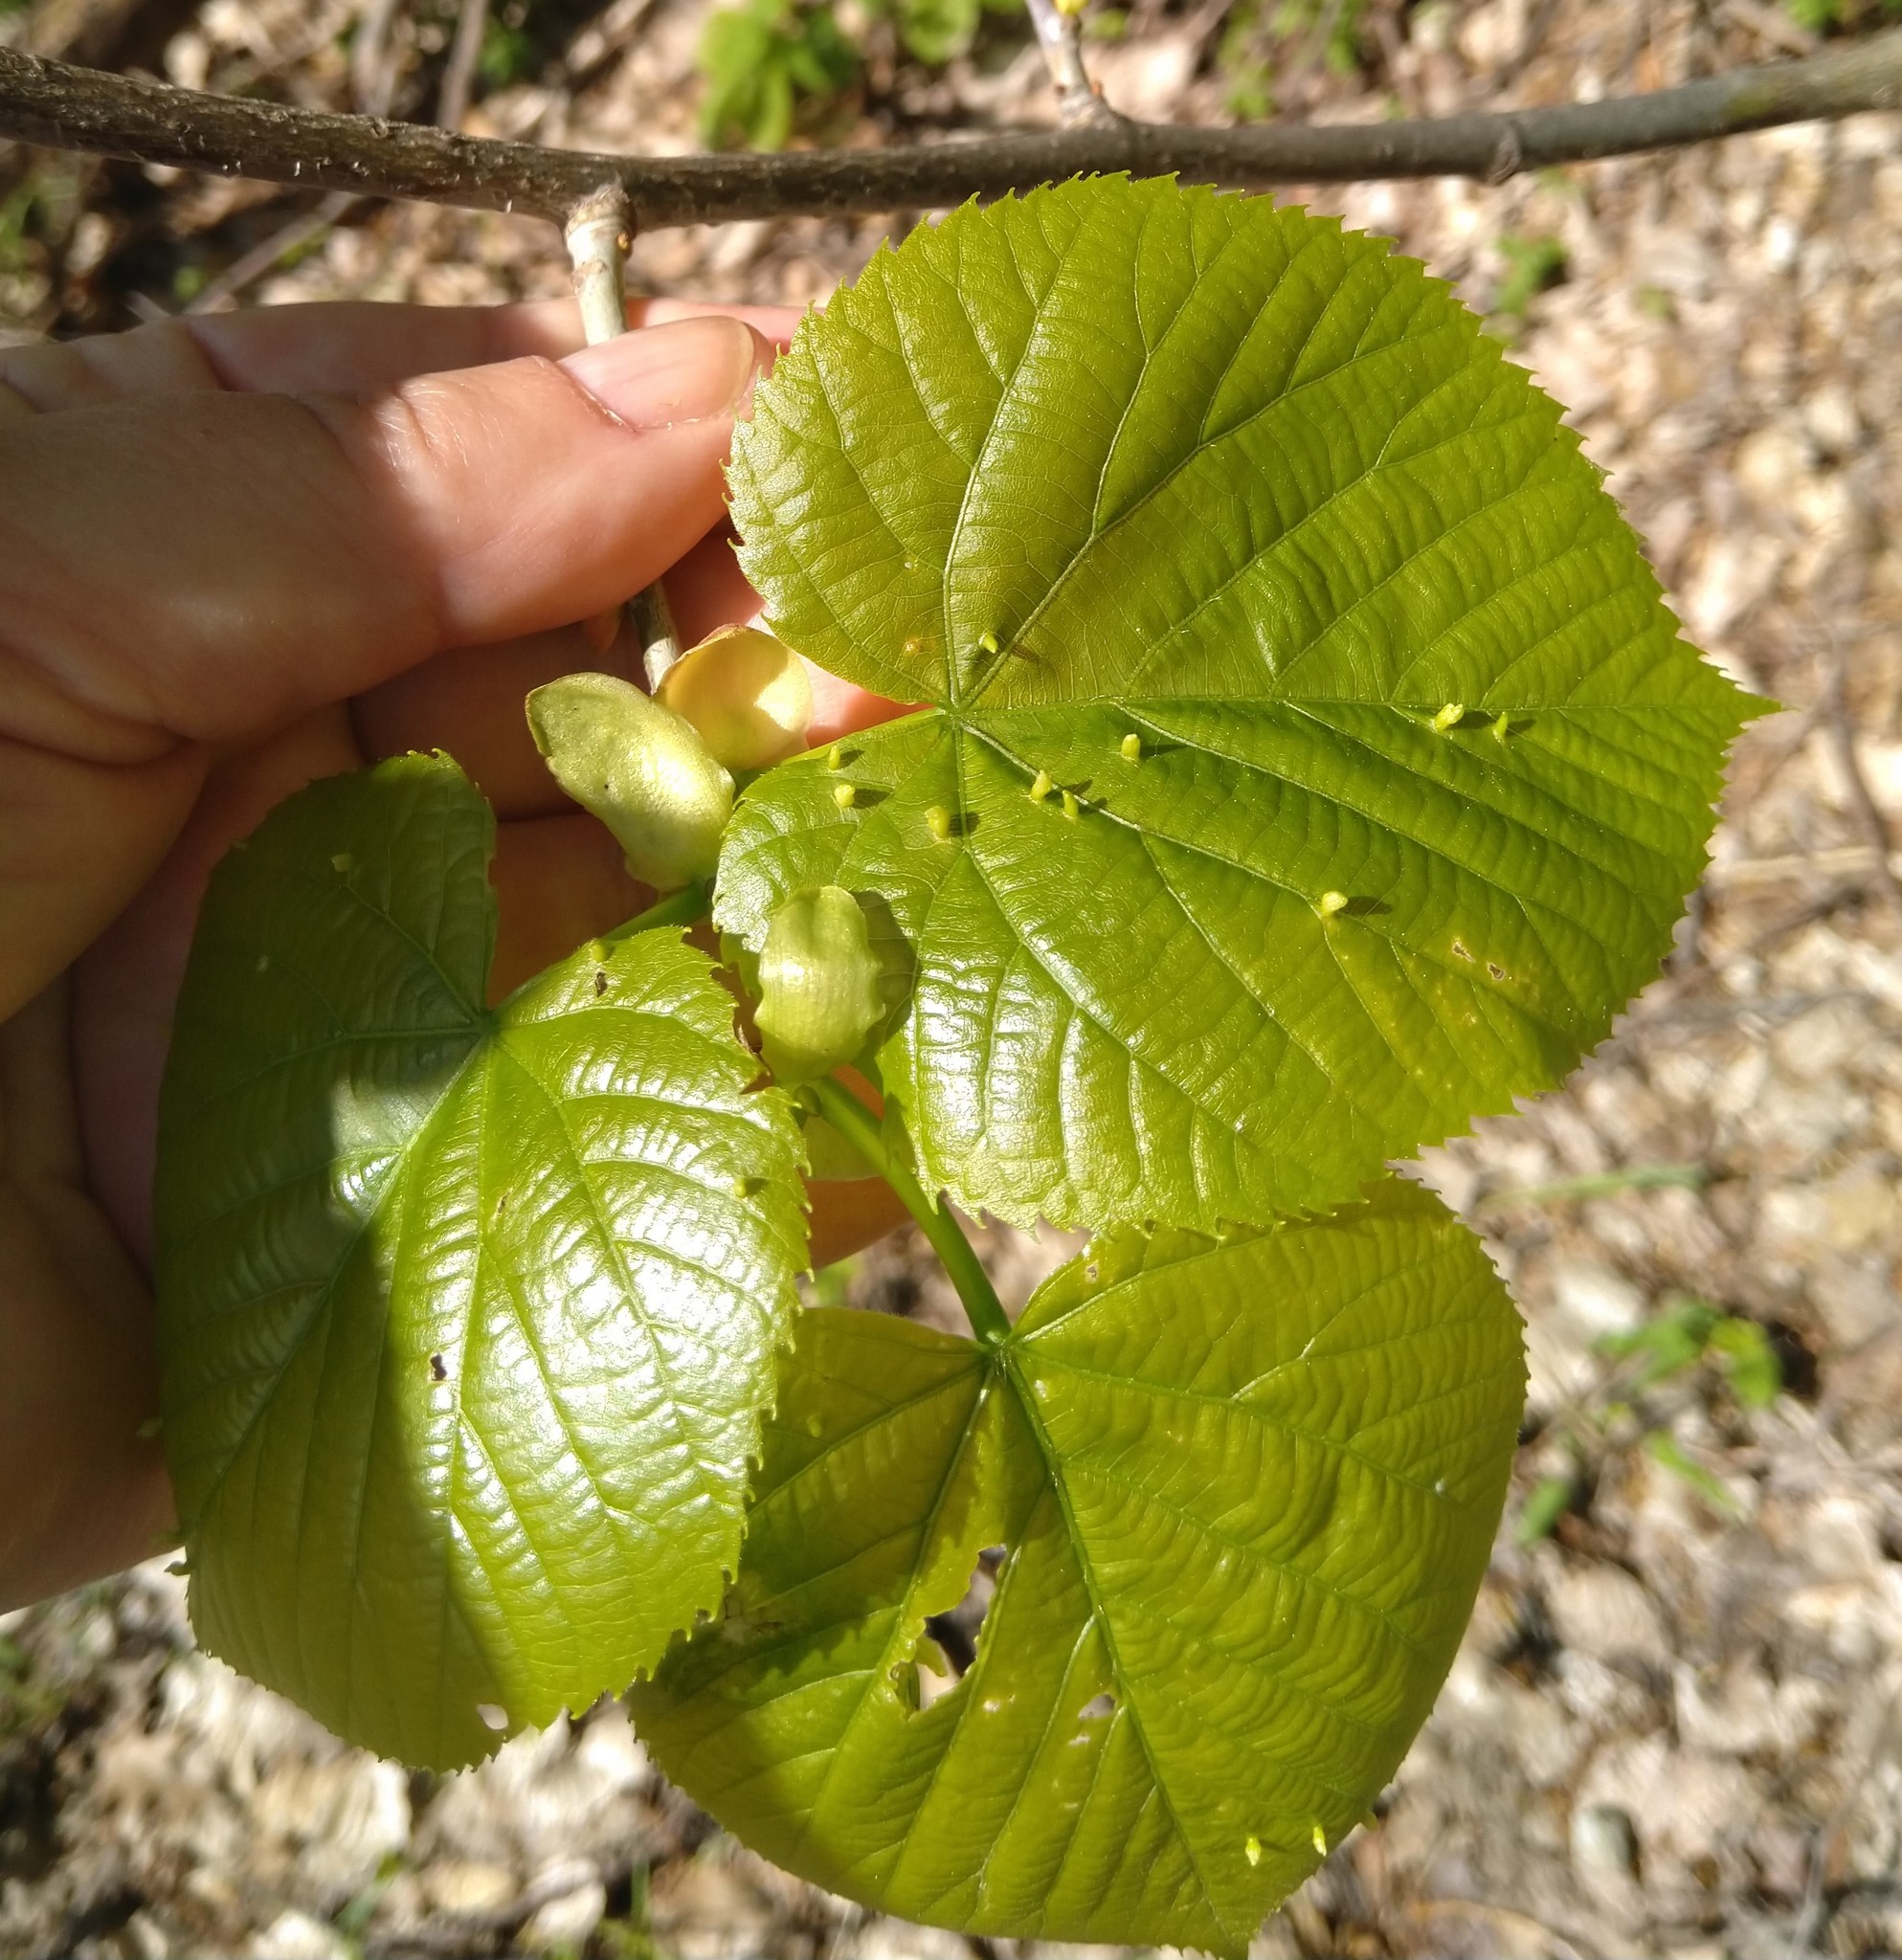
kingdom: Animalia
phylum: Arthropoda
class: Arachnida
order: Trombidiformes
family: Eriophyidae
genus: Eriophyes
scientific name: Eriophyes tiliae
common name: Red nail gall mite
